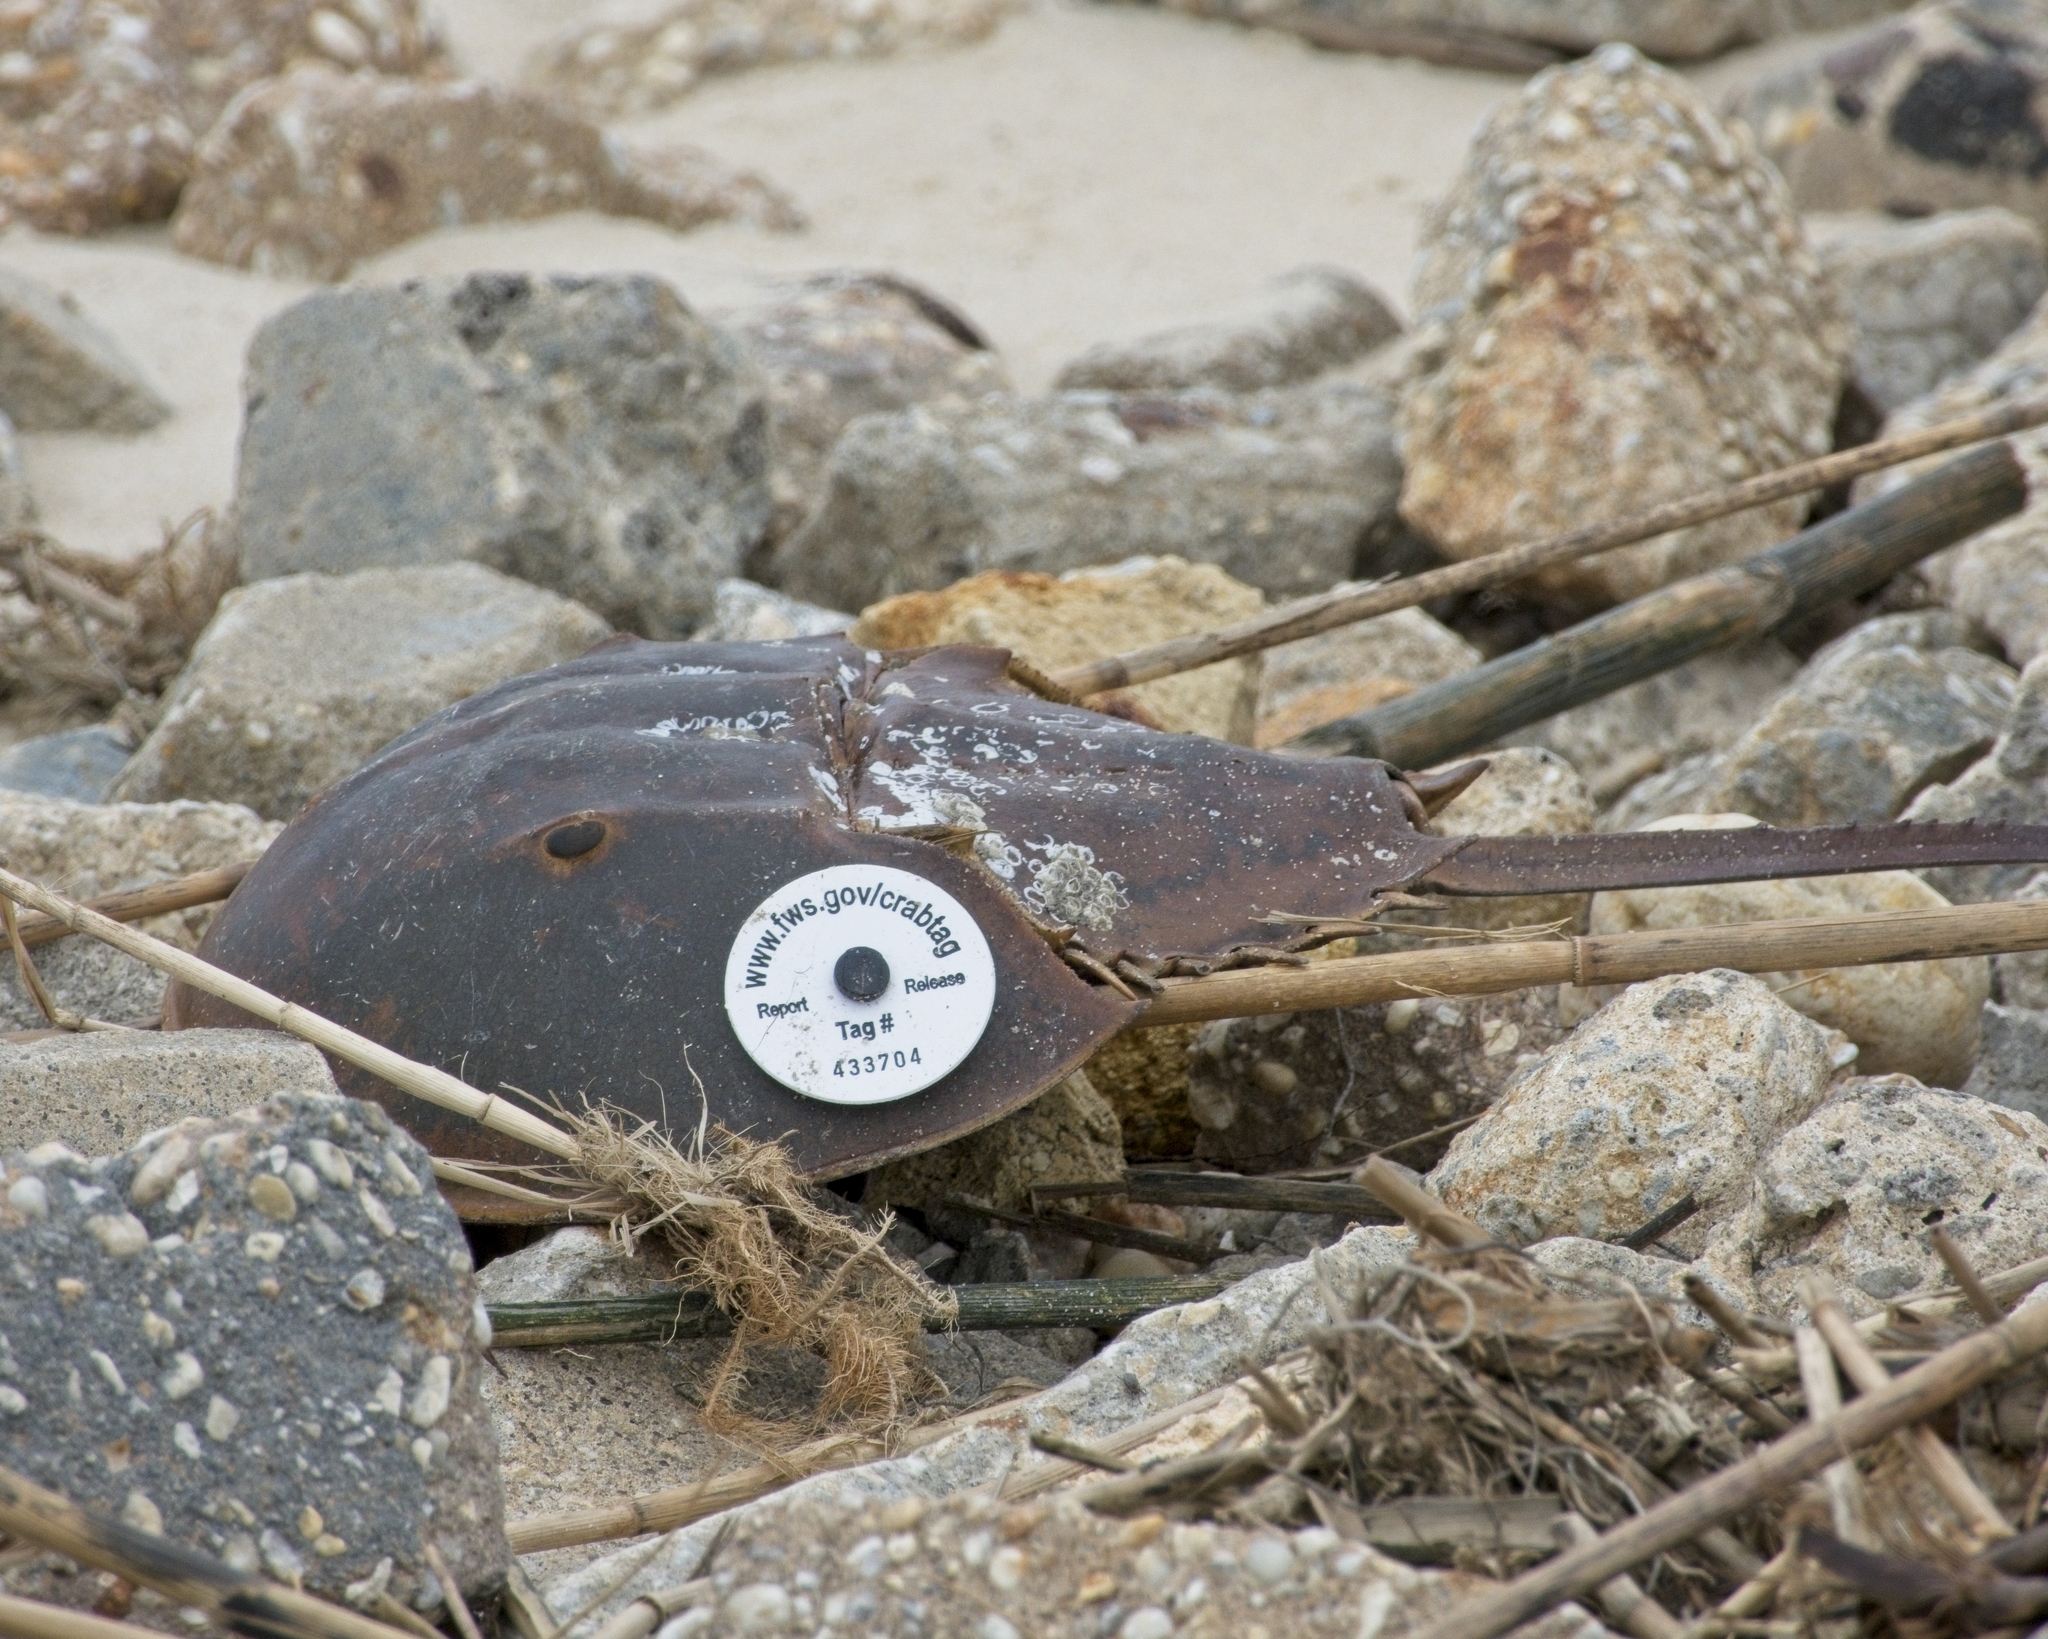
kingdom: Animalia
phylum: Arthropoda
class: Merostomata
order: Xiphosurida
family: Limulidae
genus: Limulus
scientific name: Limulus polyphemus
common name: Horseshoe crab
